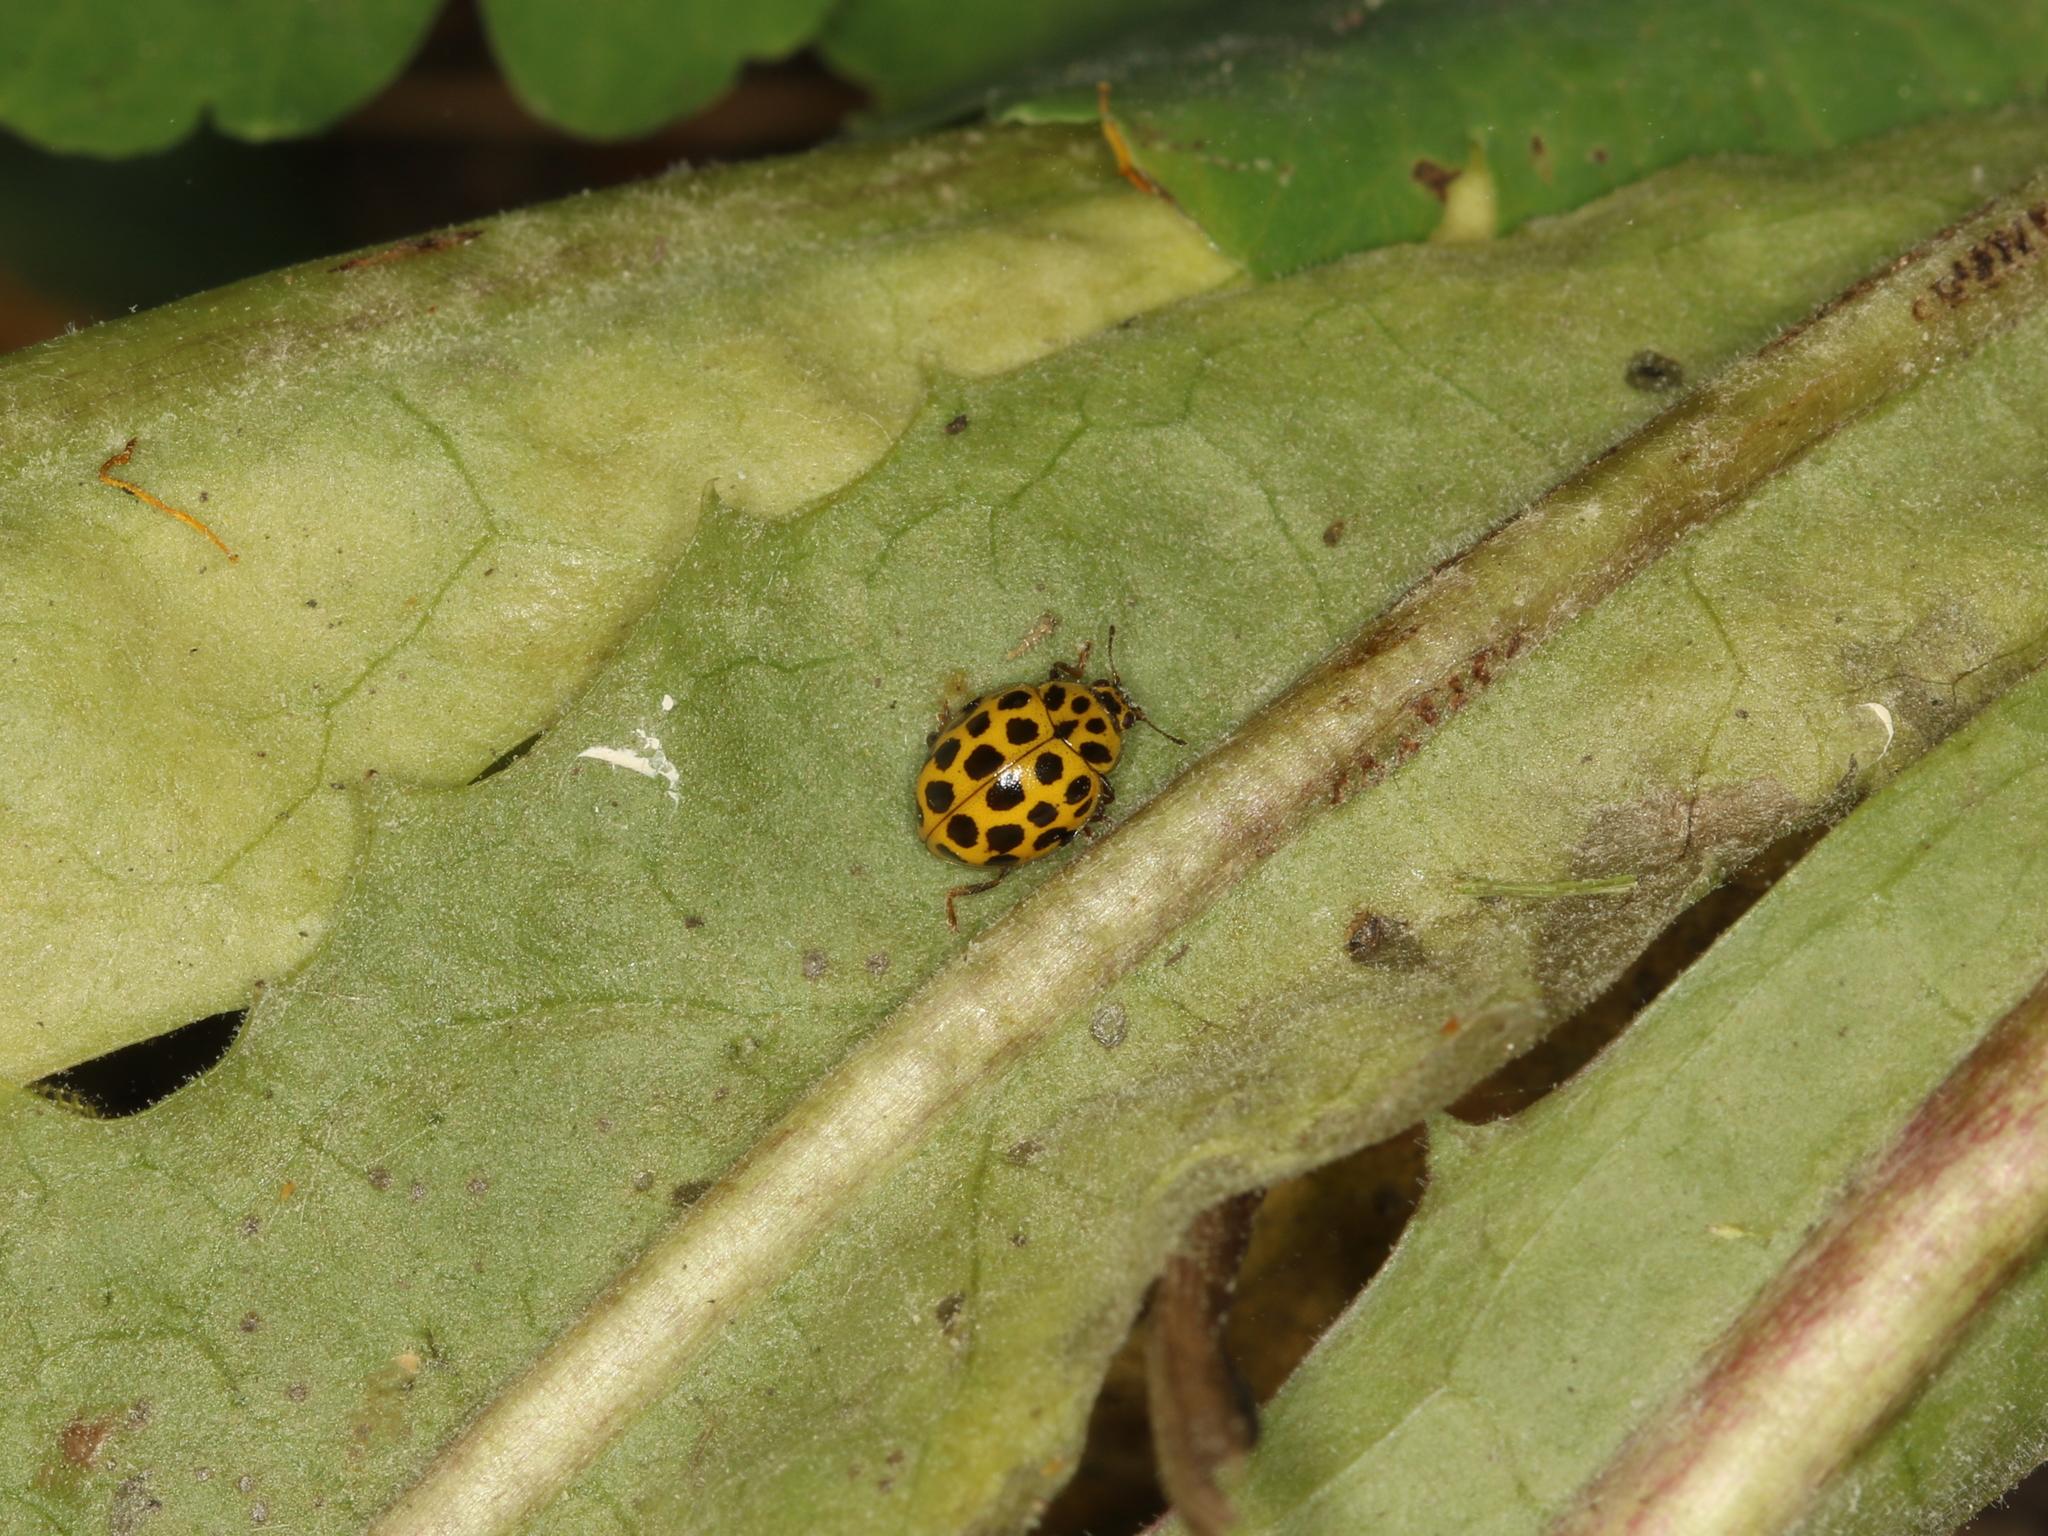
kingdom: Animalia
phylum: Arthropoda
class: Insecta
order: Coleoptera
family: Coccinellidae
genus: Psyllobora
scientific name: Psyllobora vigintiduopunctata
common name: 22-spot ladybird
